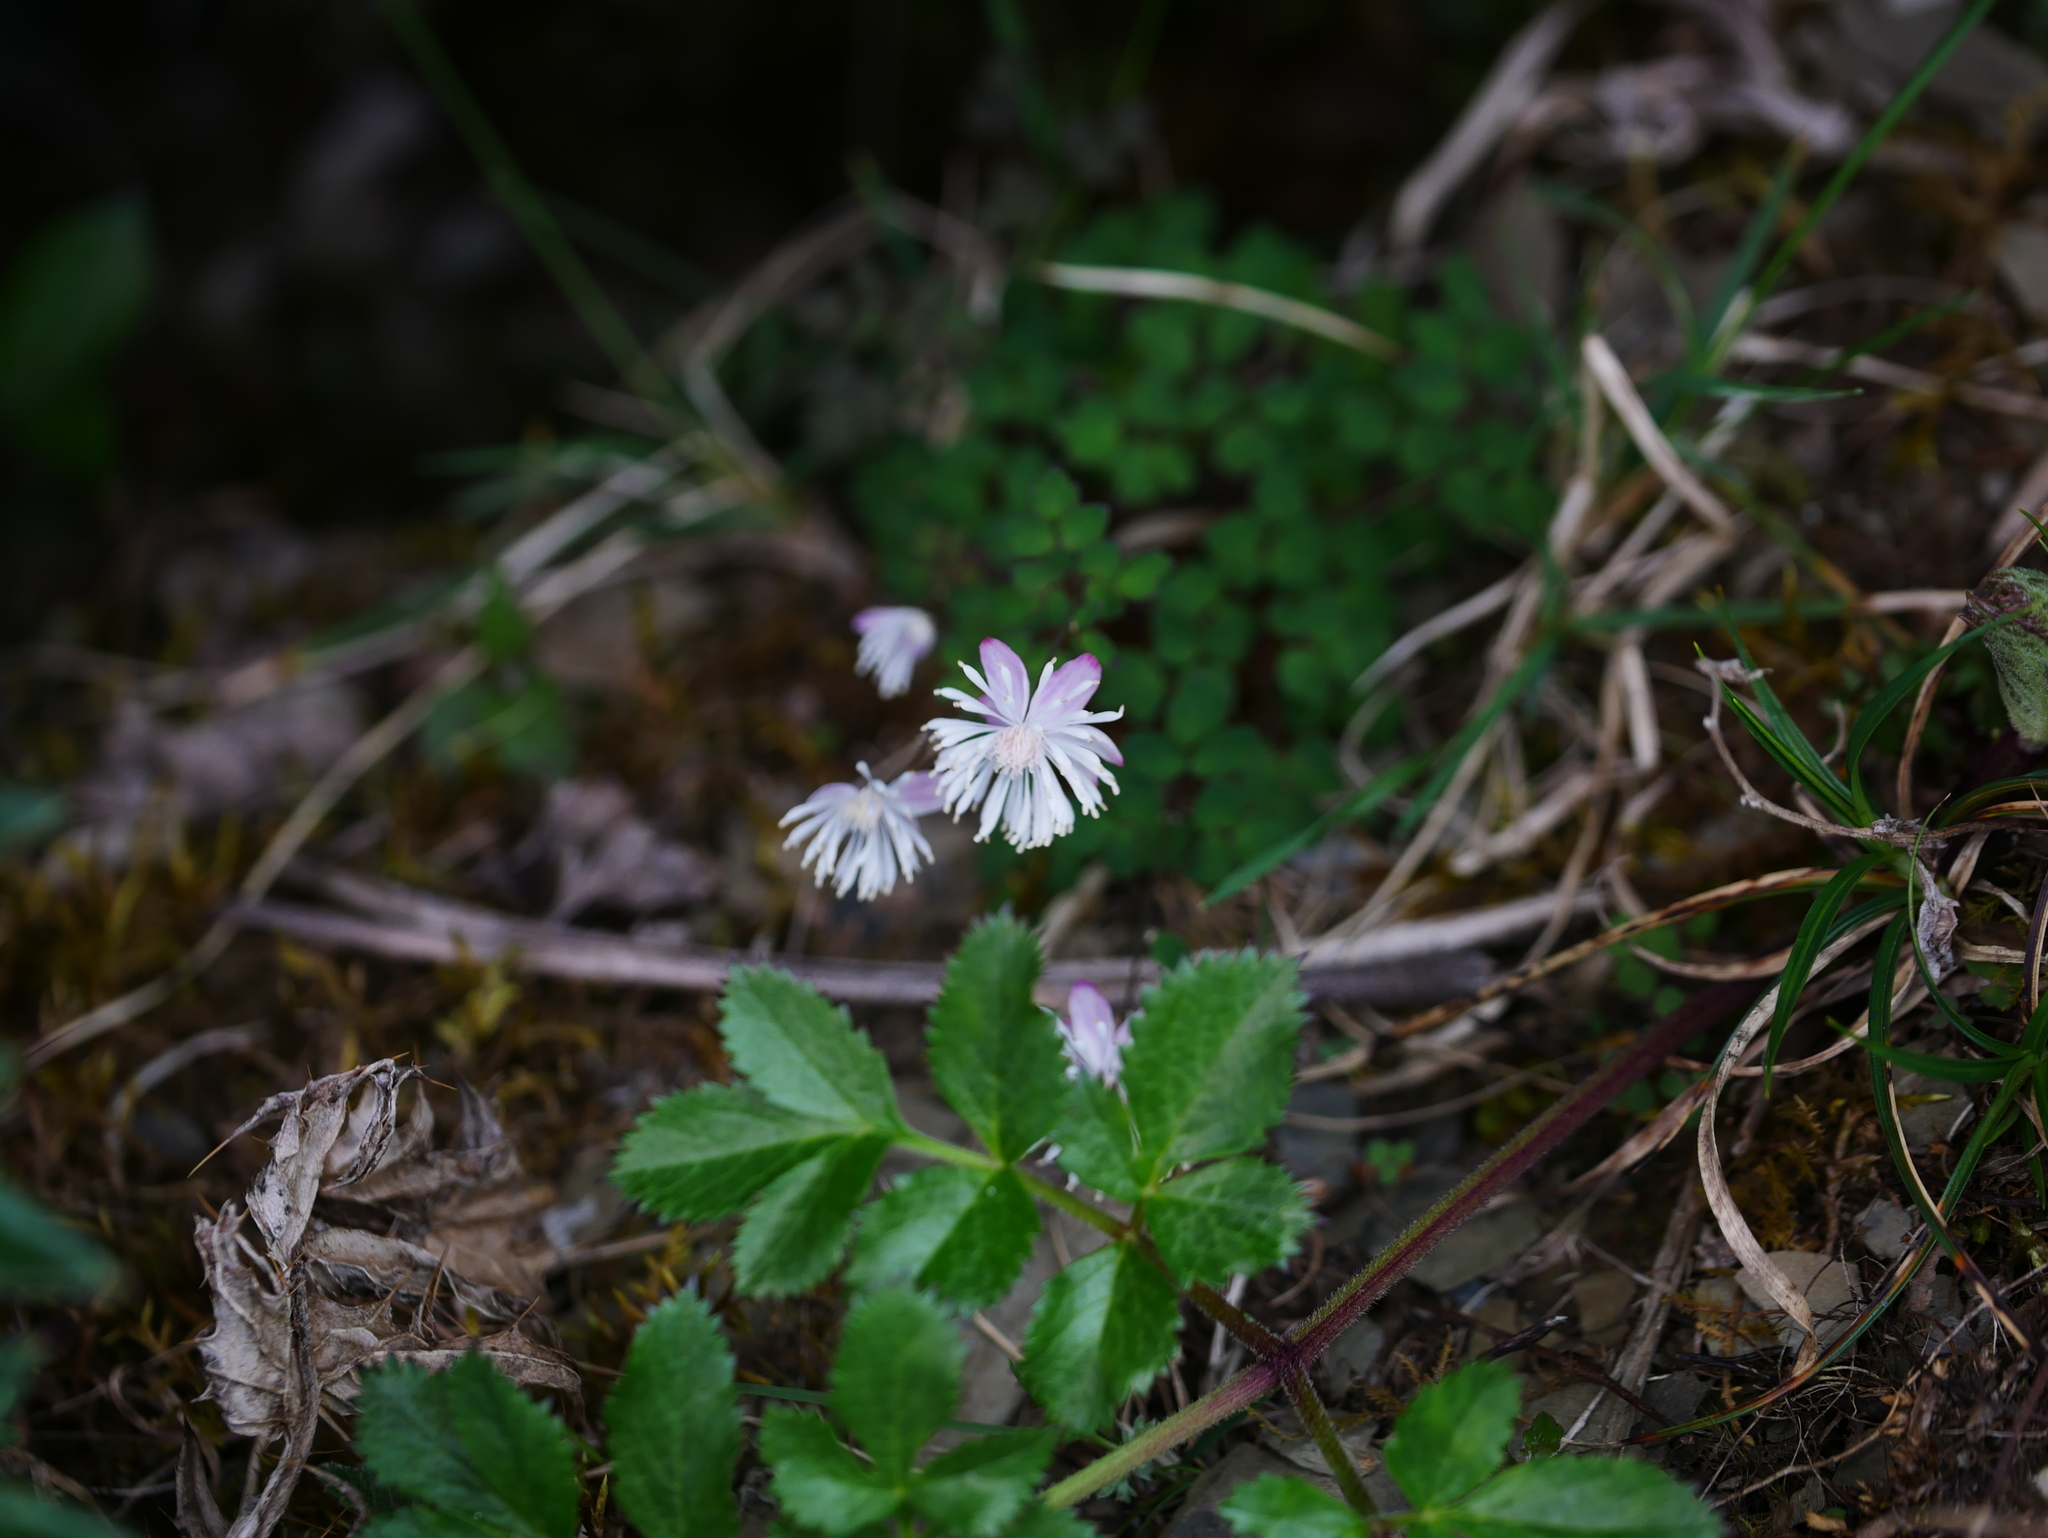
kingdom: Plantae
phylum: Tracheophyta
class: Magnoliopsida
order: Ranunculales
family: Ranunculaceae
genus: Thalictrum
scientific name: Thalictrum rubescens
